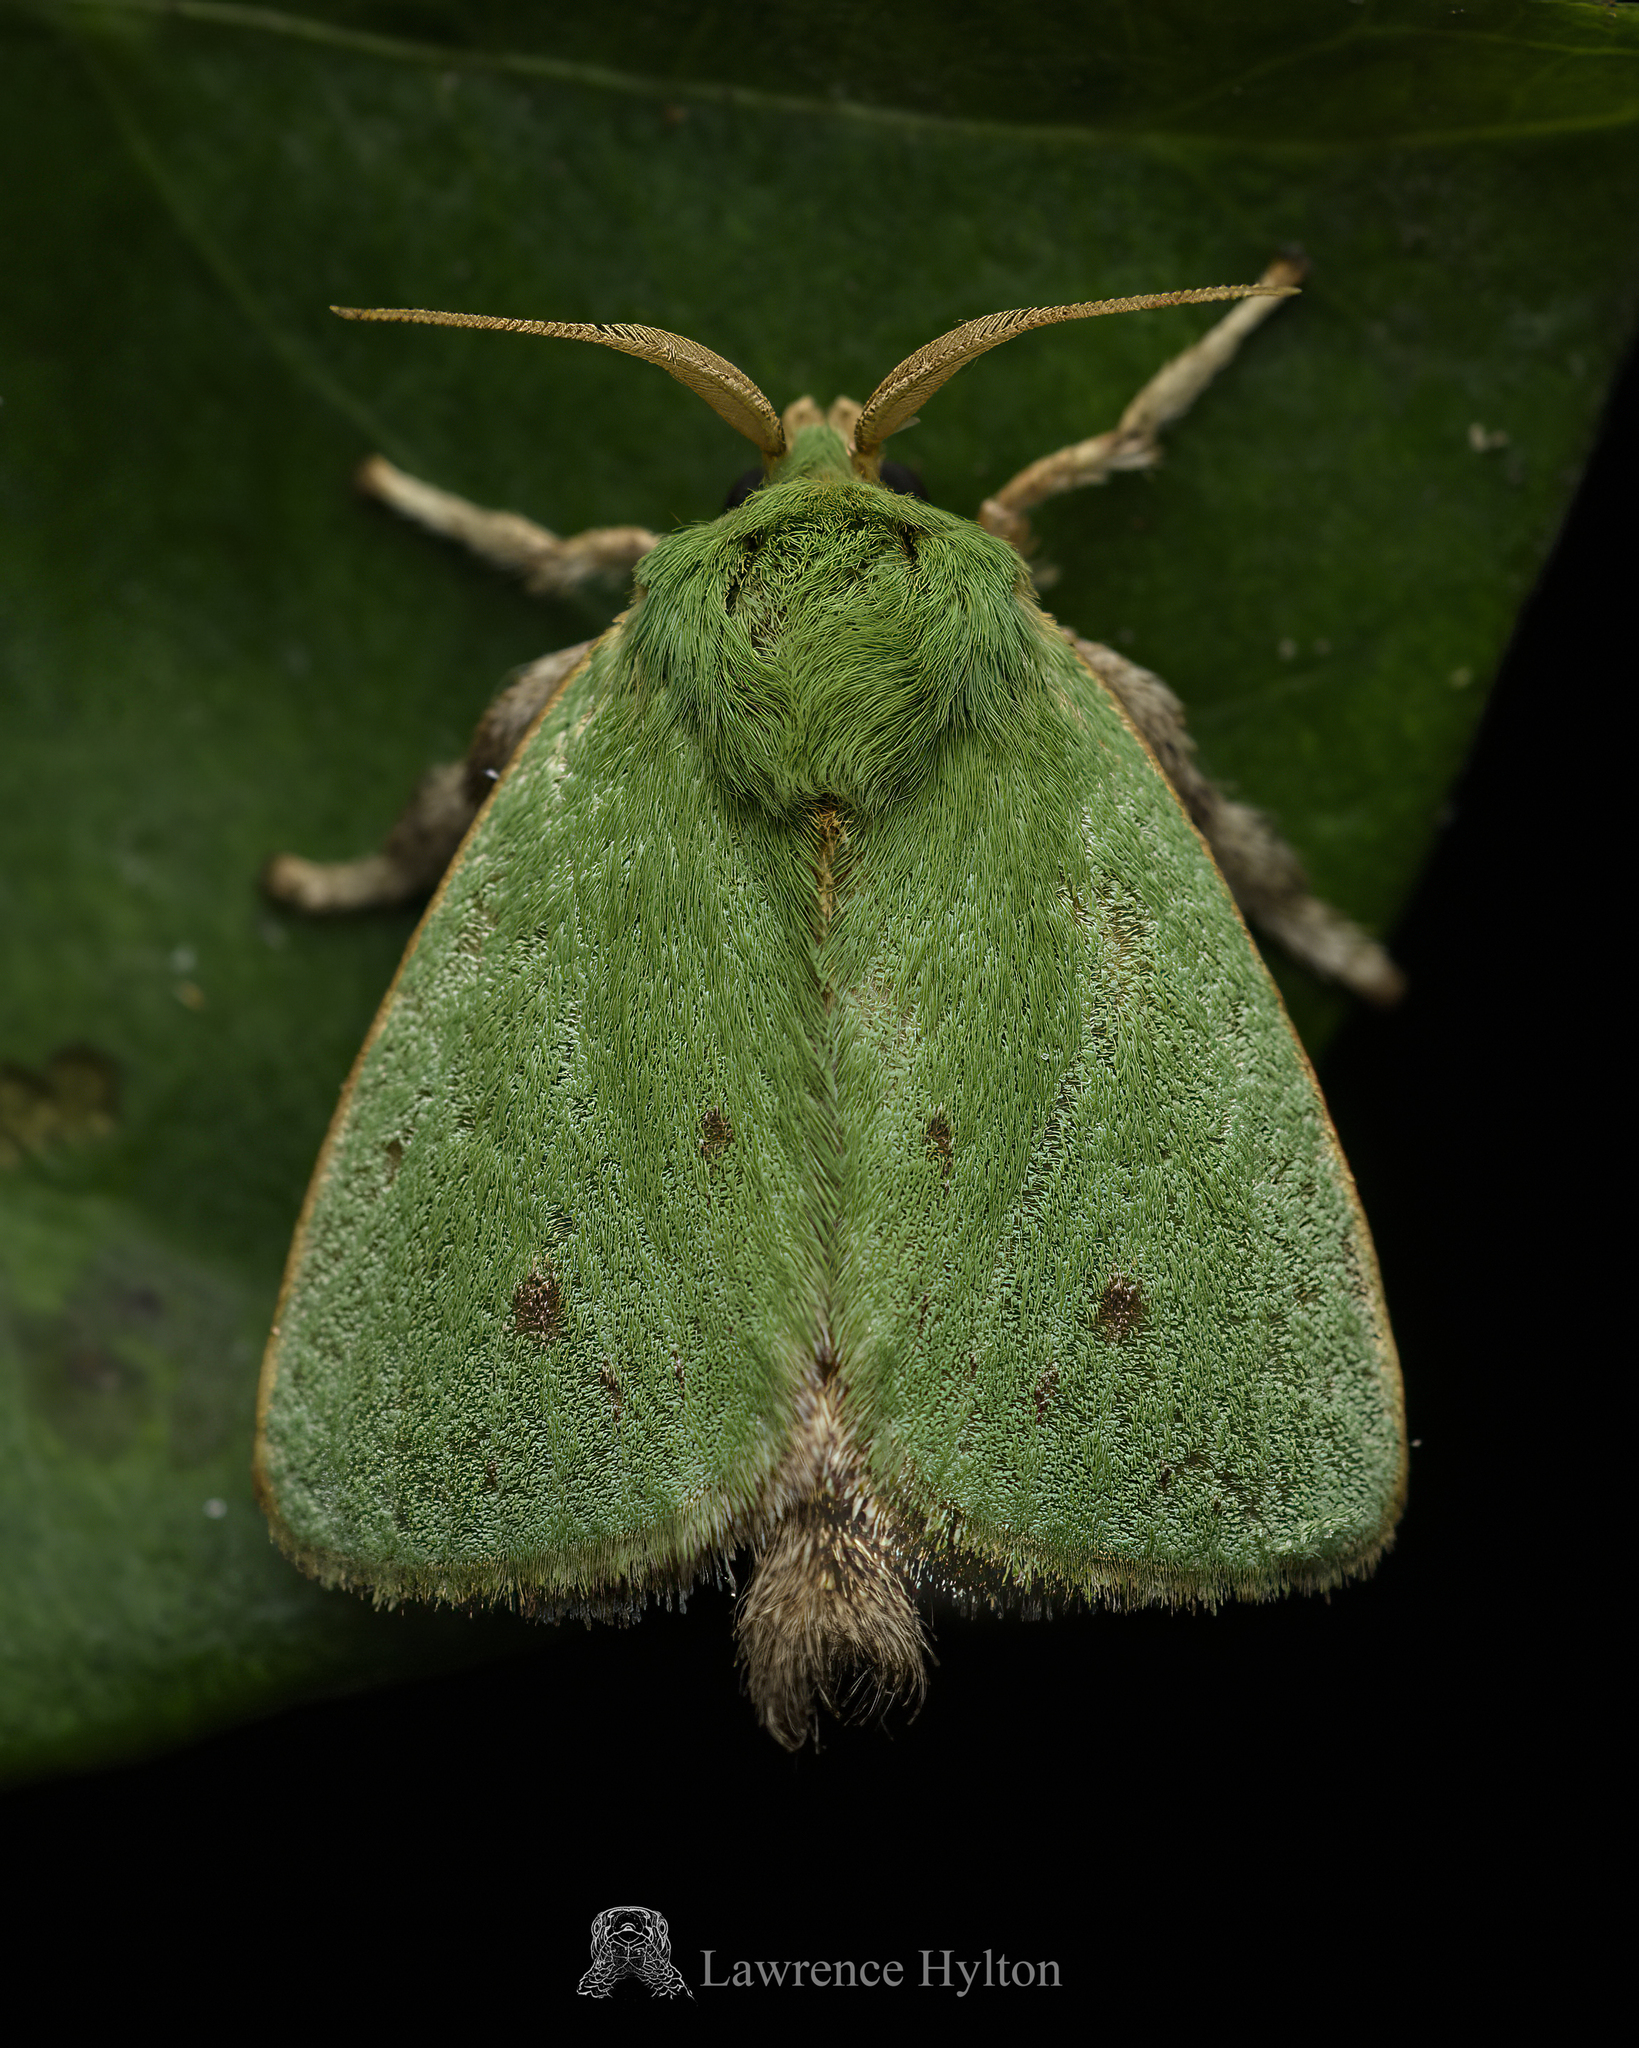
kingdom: Animalia
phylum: Arthropoda
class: Insecta
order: Lepidoptera
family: Limacodidae
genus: Thespea
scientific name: Thespea virescens
